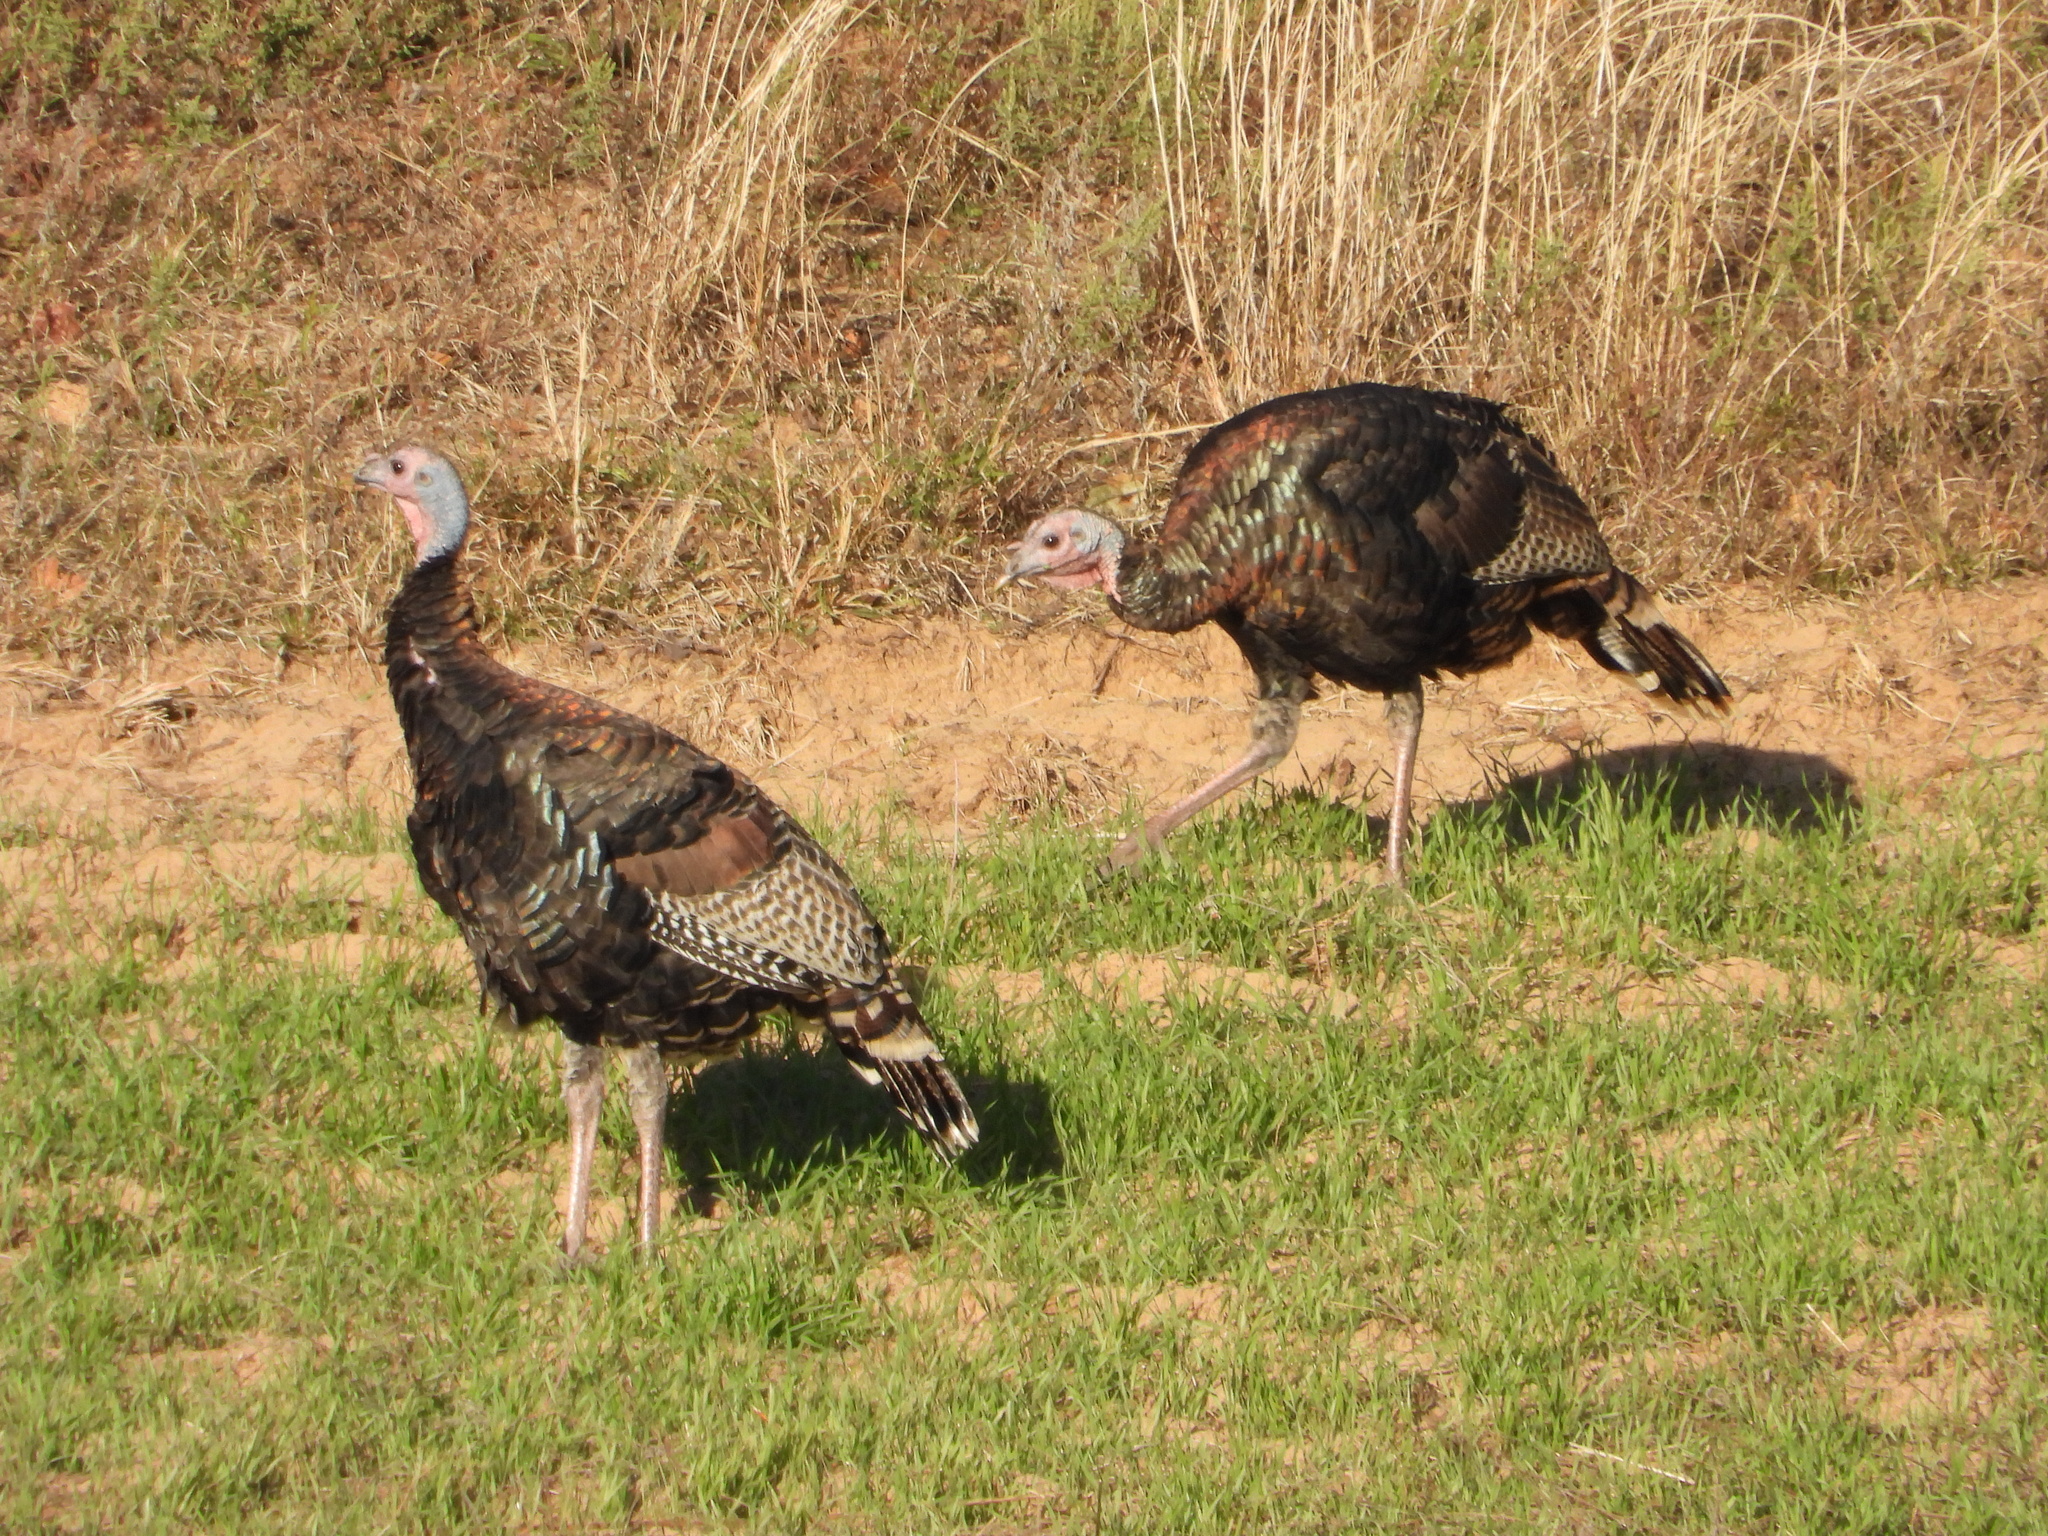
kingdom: Animalia
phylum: Chordata
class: Aves
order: Galliformes
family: Phasianidae
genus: Meleagris
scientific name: Meleagris gallopavo
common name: Wild turkey
